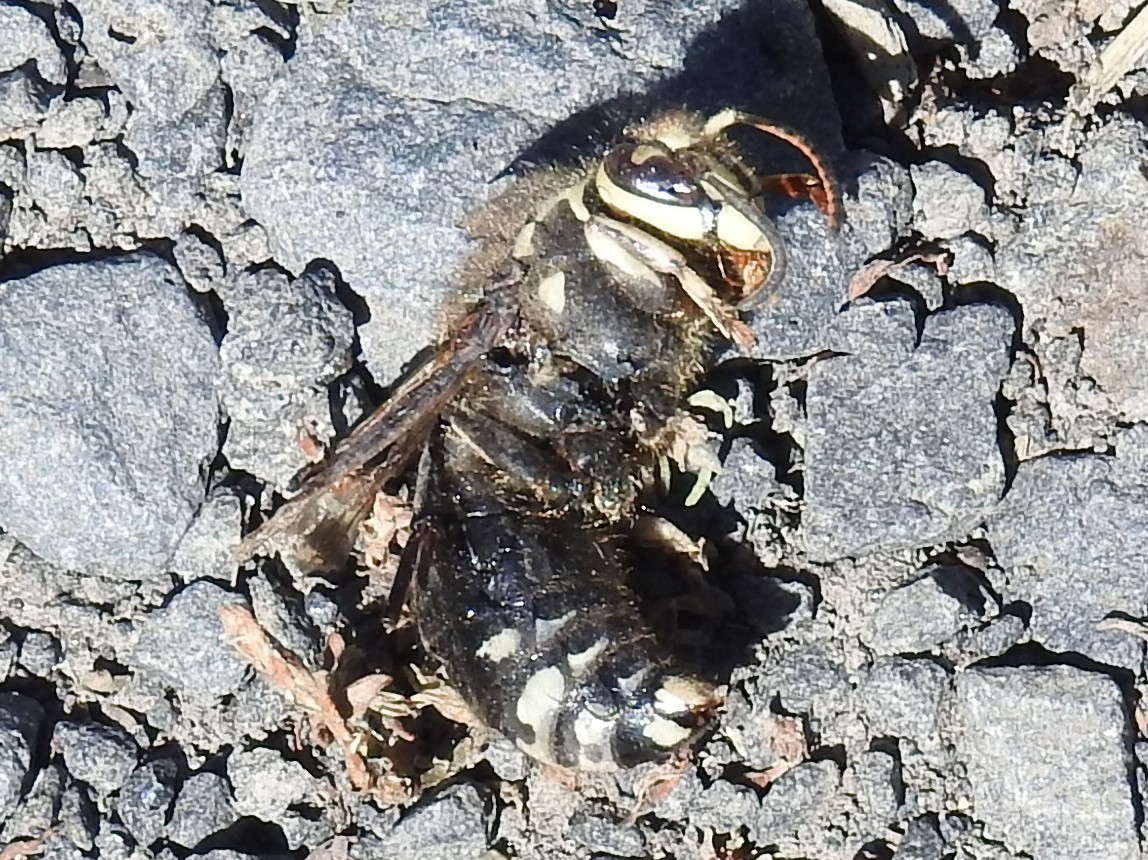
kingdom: Animalia
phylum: Arthropoda
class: Insecta
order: Hymenoptera
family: Vespidae
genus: Dolichovespula
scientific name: Dolichovespula maculata
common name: Bald-faced hornet
